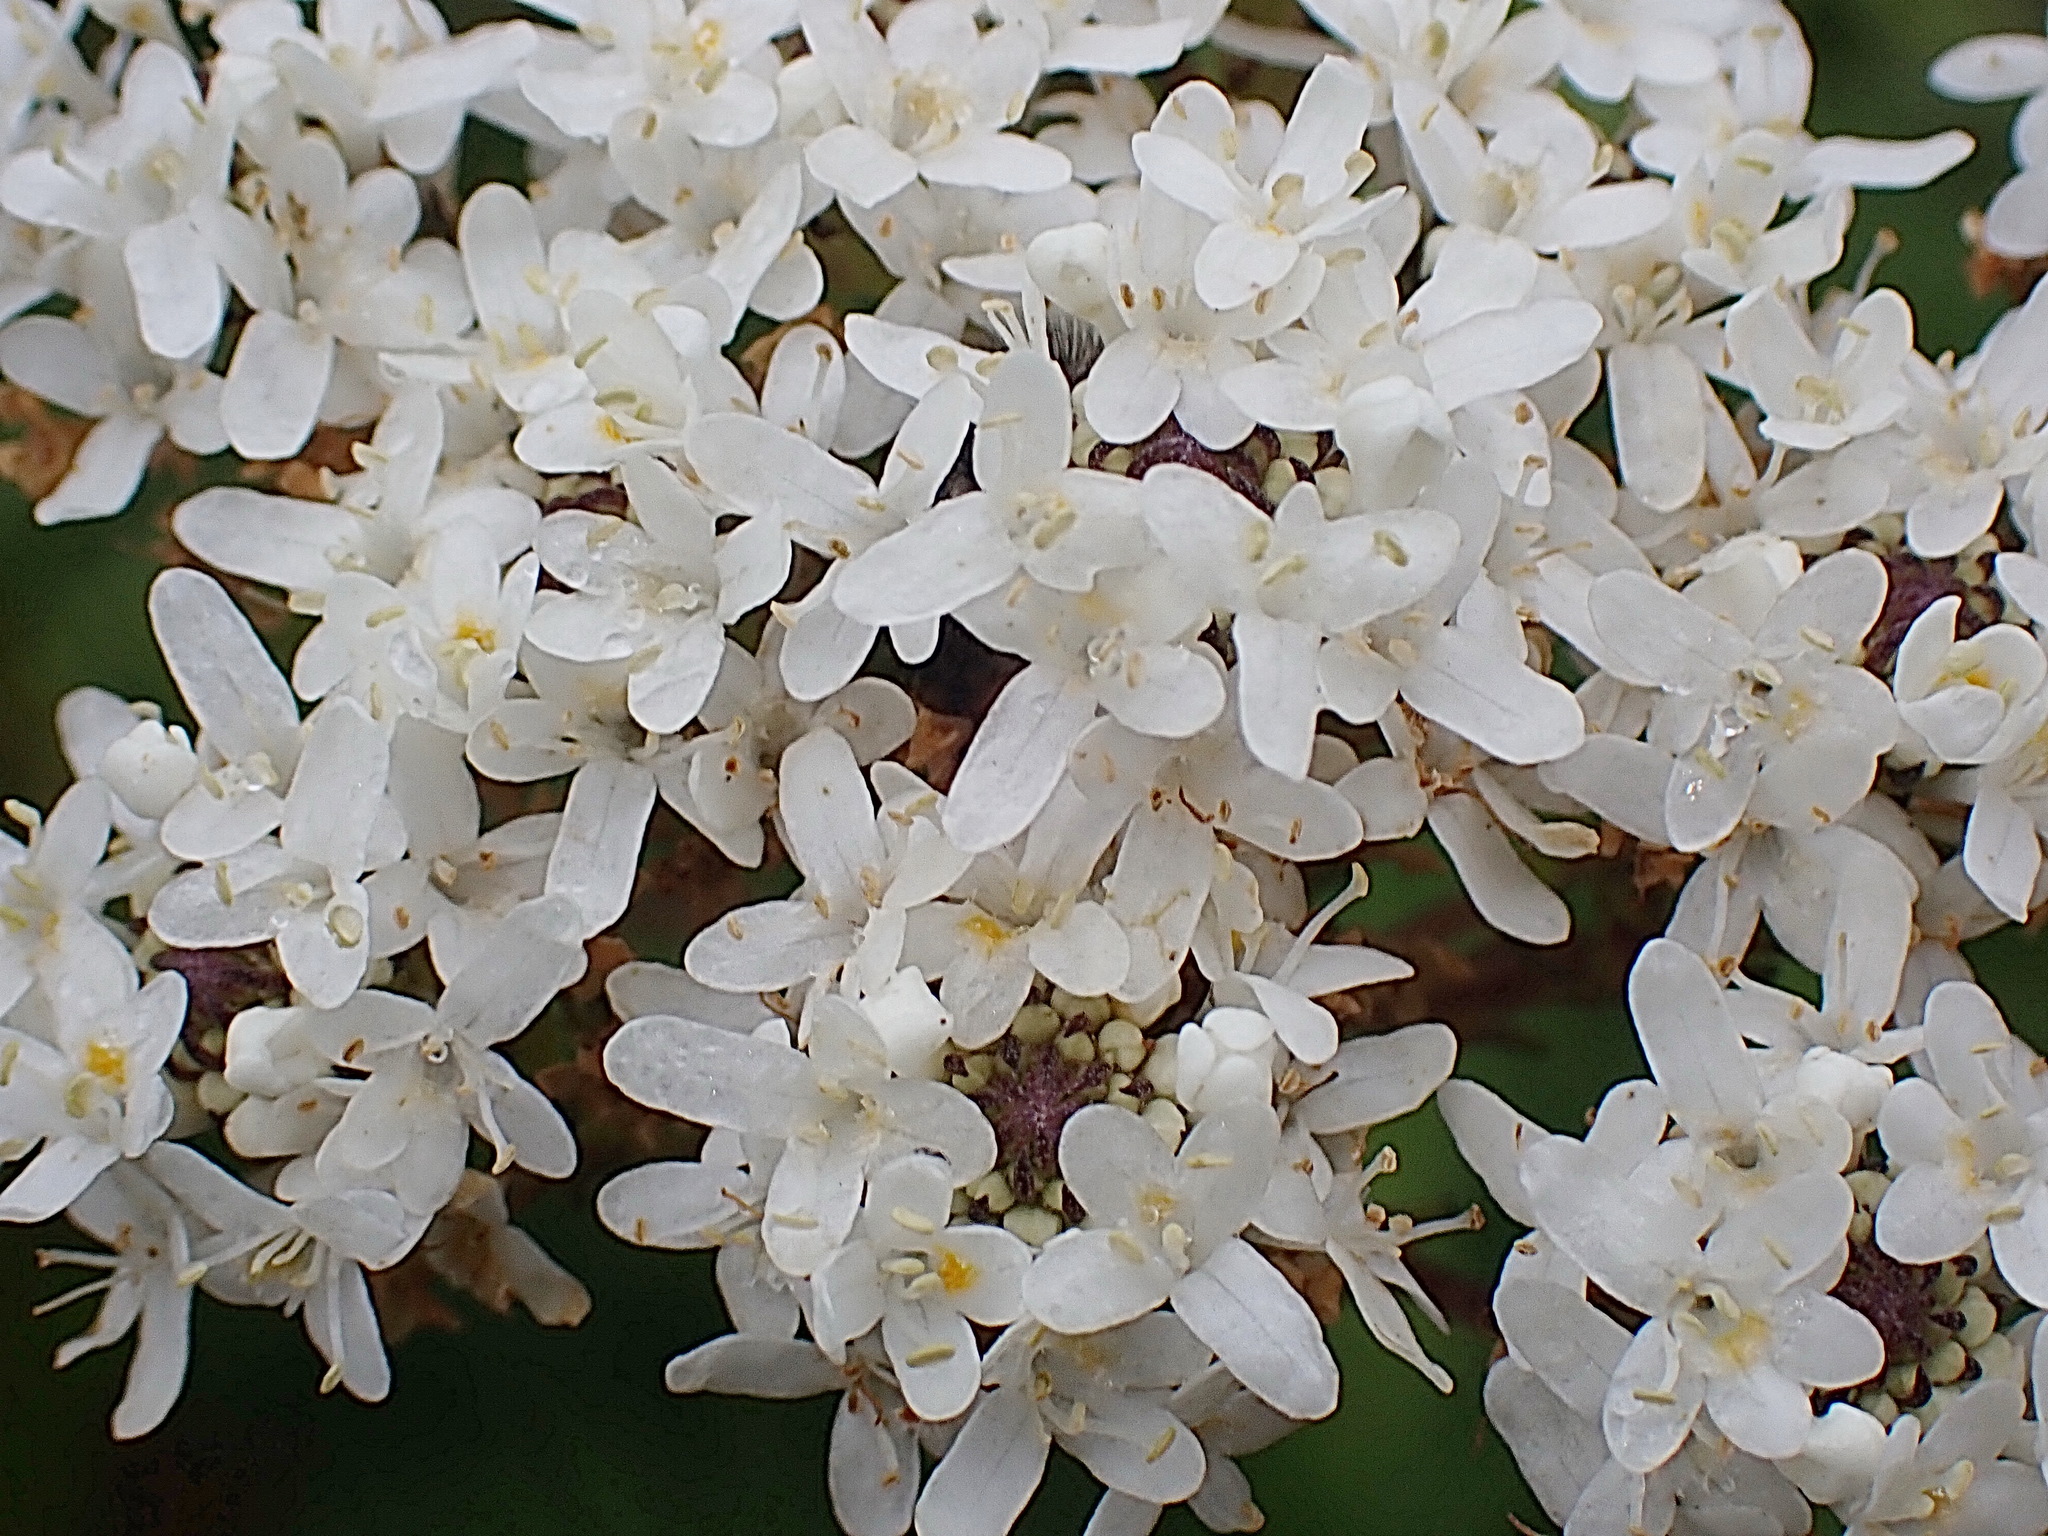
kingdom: Plantae
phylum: Tracheophyta
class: Magnoliopsida
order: Lamiales
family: Scrophulariaceae
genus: Pseudoselago
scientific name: Pseudoselago outeniquensis
